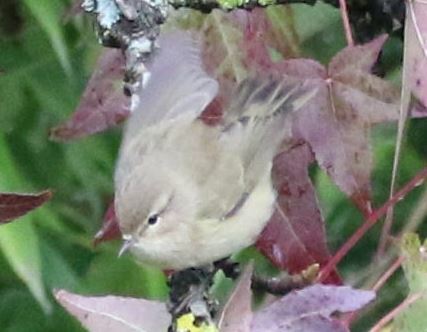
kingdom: Animalia
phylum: Chordata
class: Aves
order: Passeriformes
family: Phylloscopidae
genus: Phylloscopus
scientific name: Phylloscopus collybita
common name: Common chiffchaff
